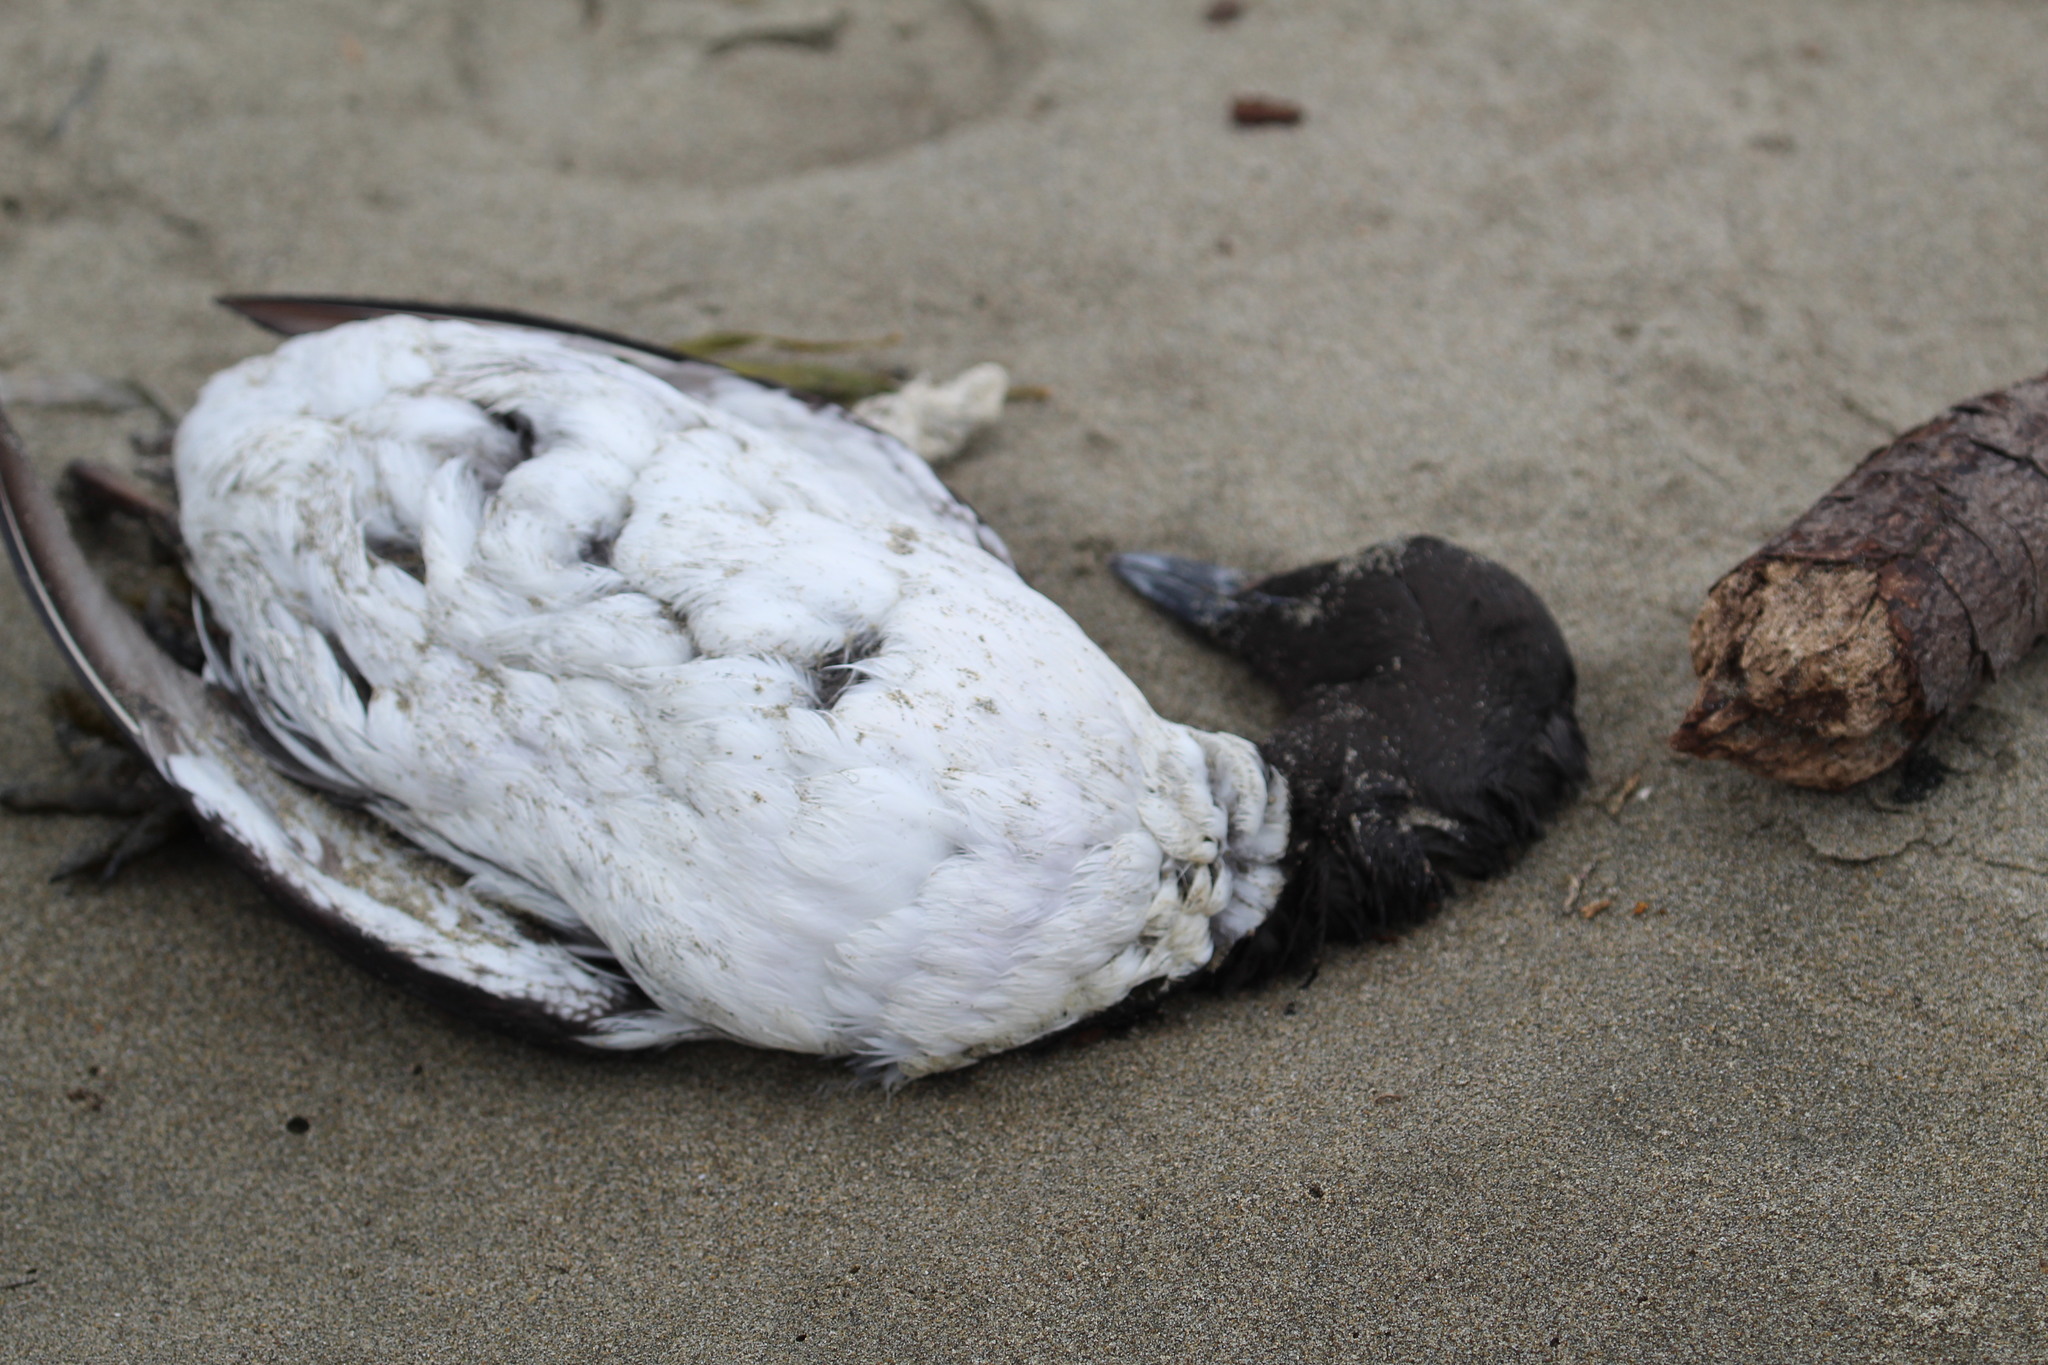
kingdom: Animalia
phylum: Chordata
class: Aves
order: Charadriiformes
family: Alcidae
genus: Uria
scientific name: Uria aalge
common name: Common murre
